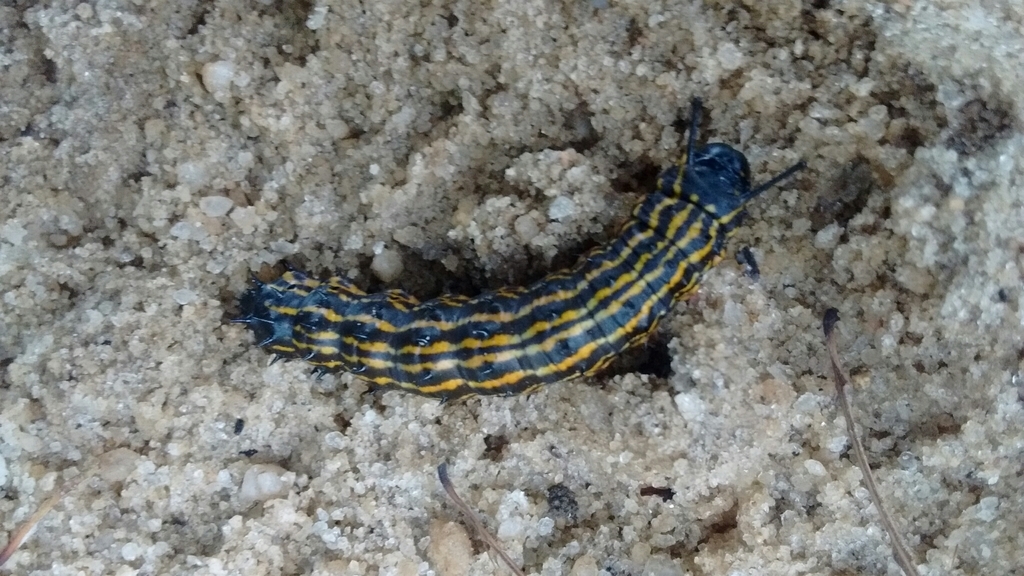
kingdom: Animalia
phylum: Arthropoda
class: Insecta
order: Lepidoptera
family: Saturniidae
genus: Anisota
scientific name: Anisota peigleri
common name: Peigler's oakworm moth
